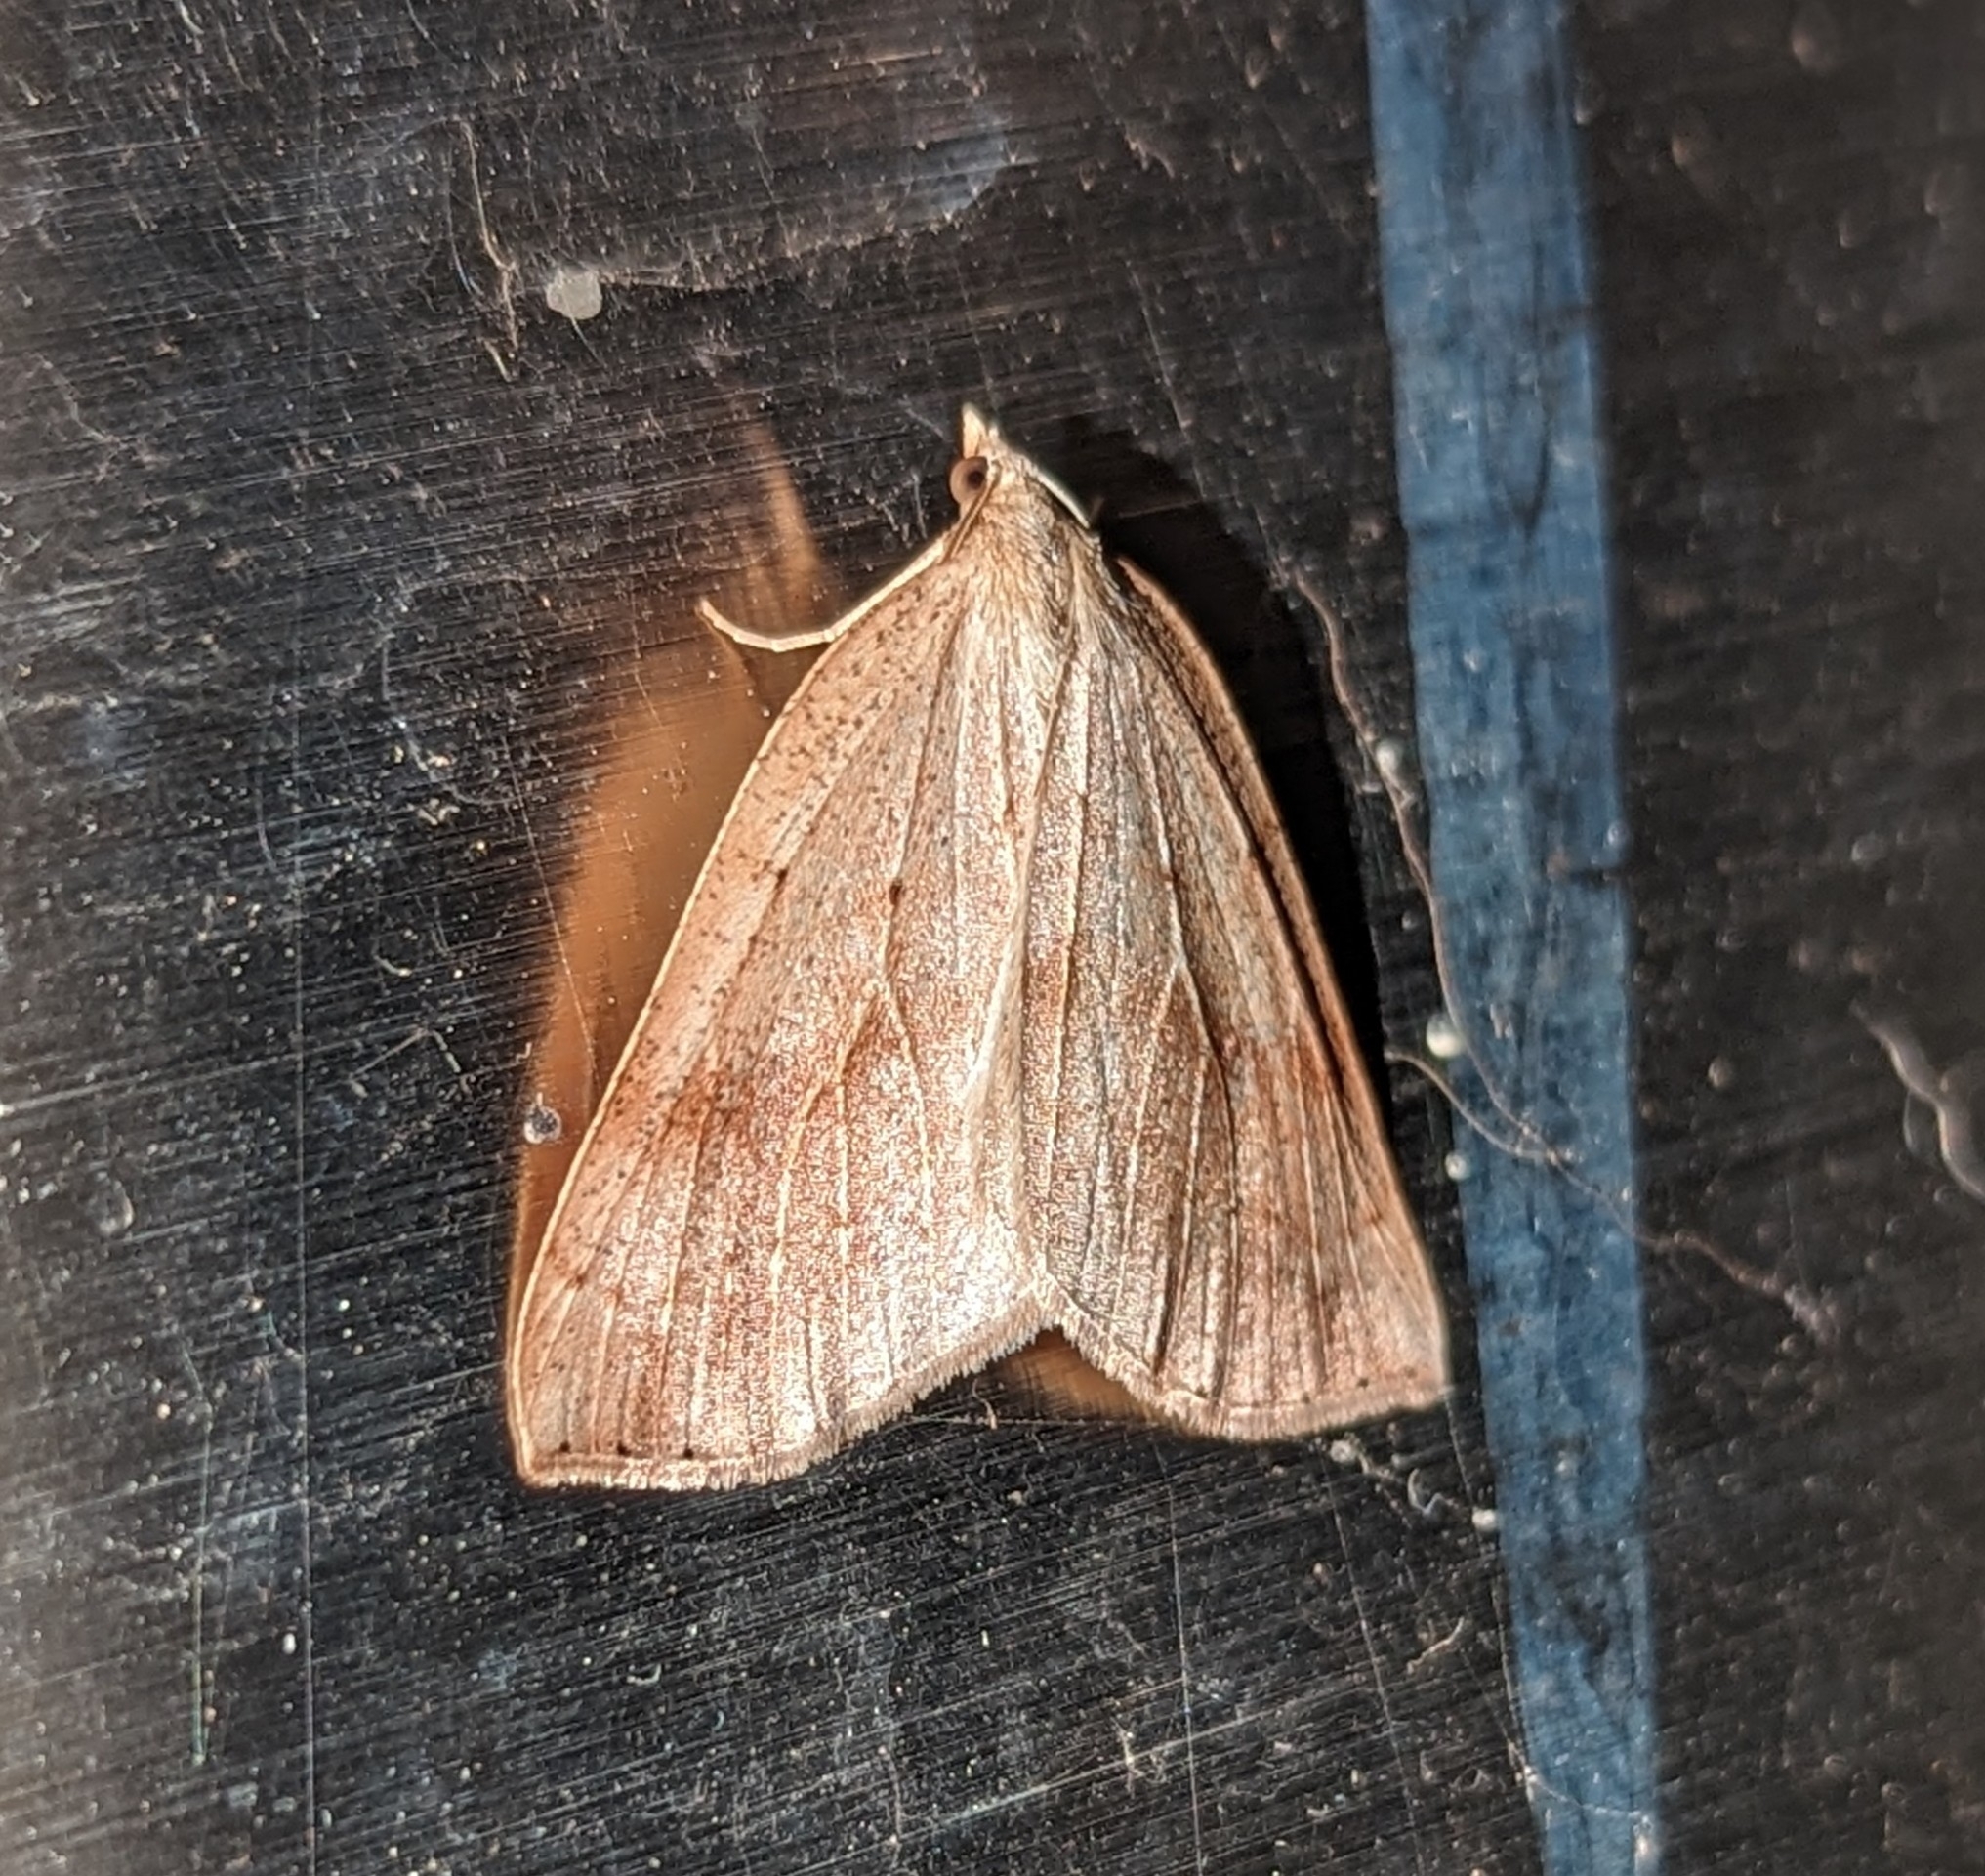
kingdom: Animalia
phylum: Arthropoda
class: Insecta
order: Lepidoptera
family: Geometridae
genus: Thallophaga
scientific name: Thallophaga hyperborea
